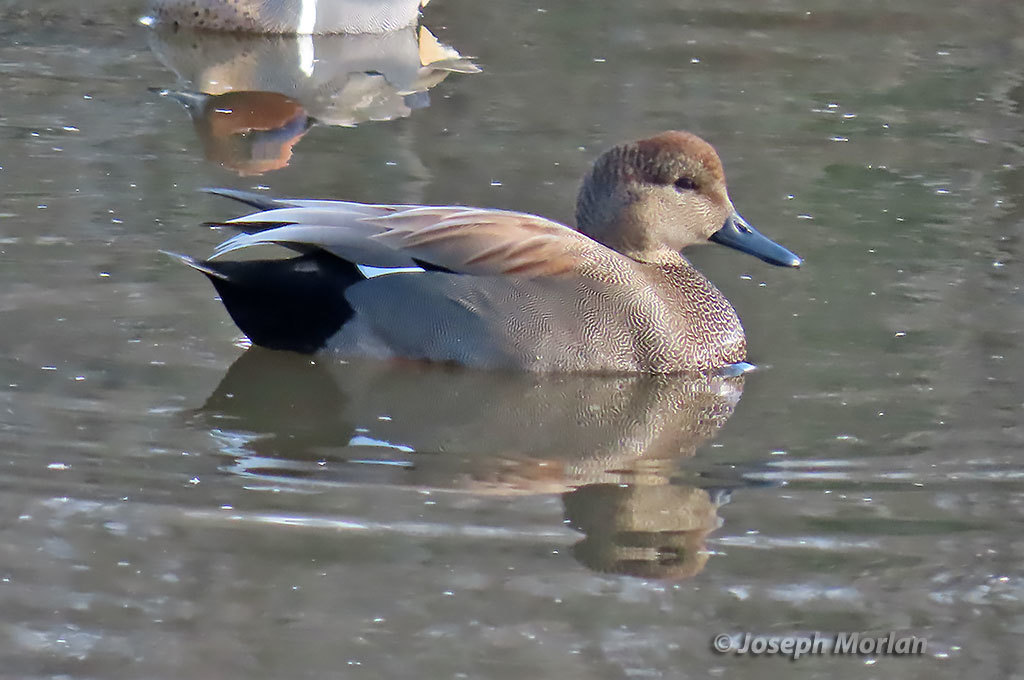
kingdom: Animalia
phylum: Chordata
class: Aves
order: Anseriformes
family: Anatidae
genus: Mareca
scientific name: Mareca strepera
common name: Gadwall
